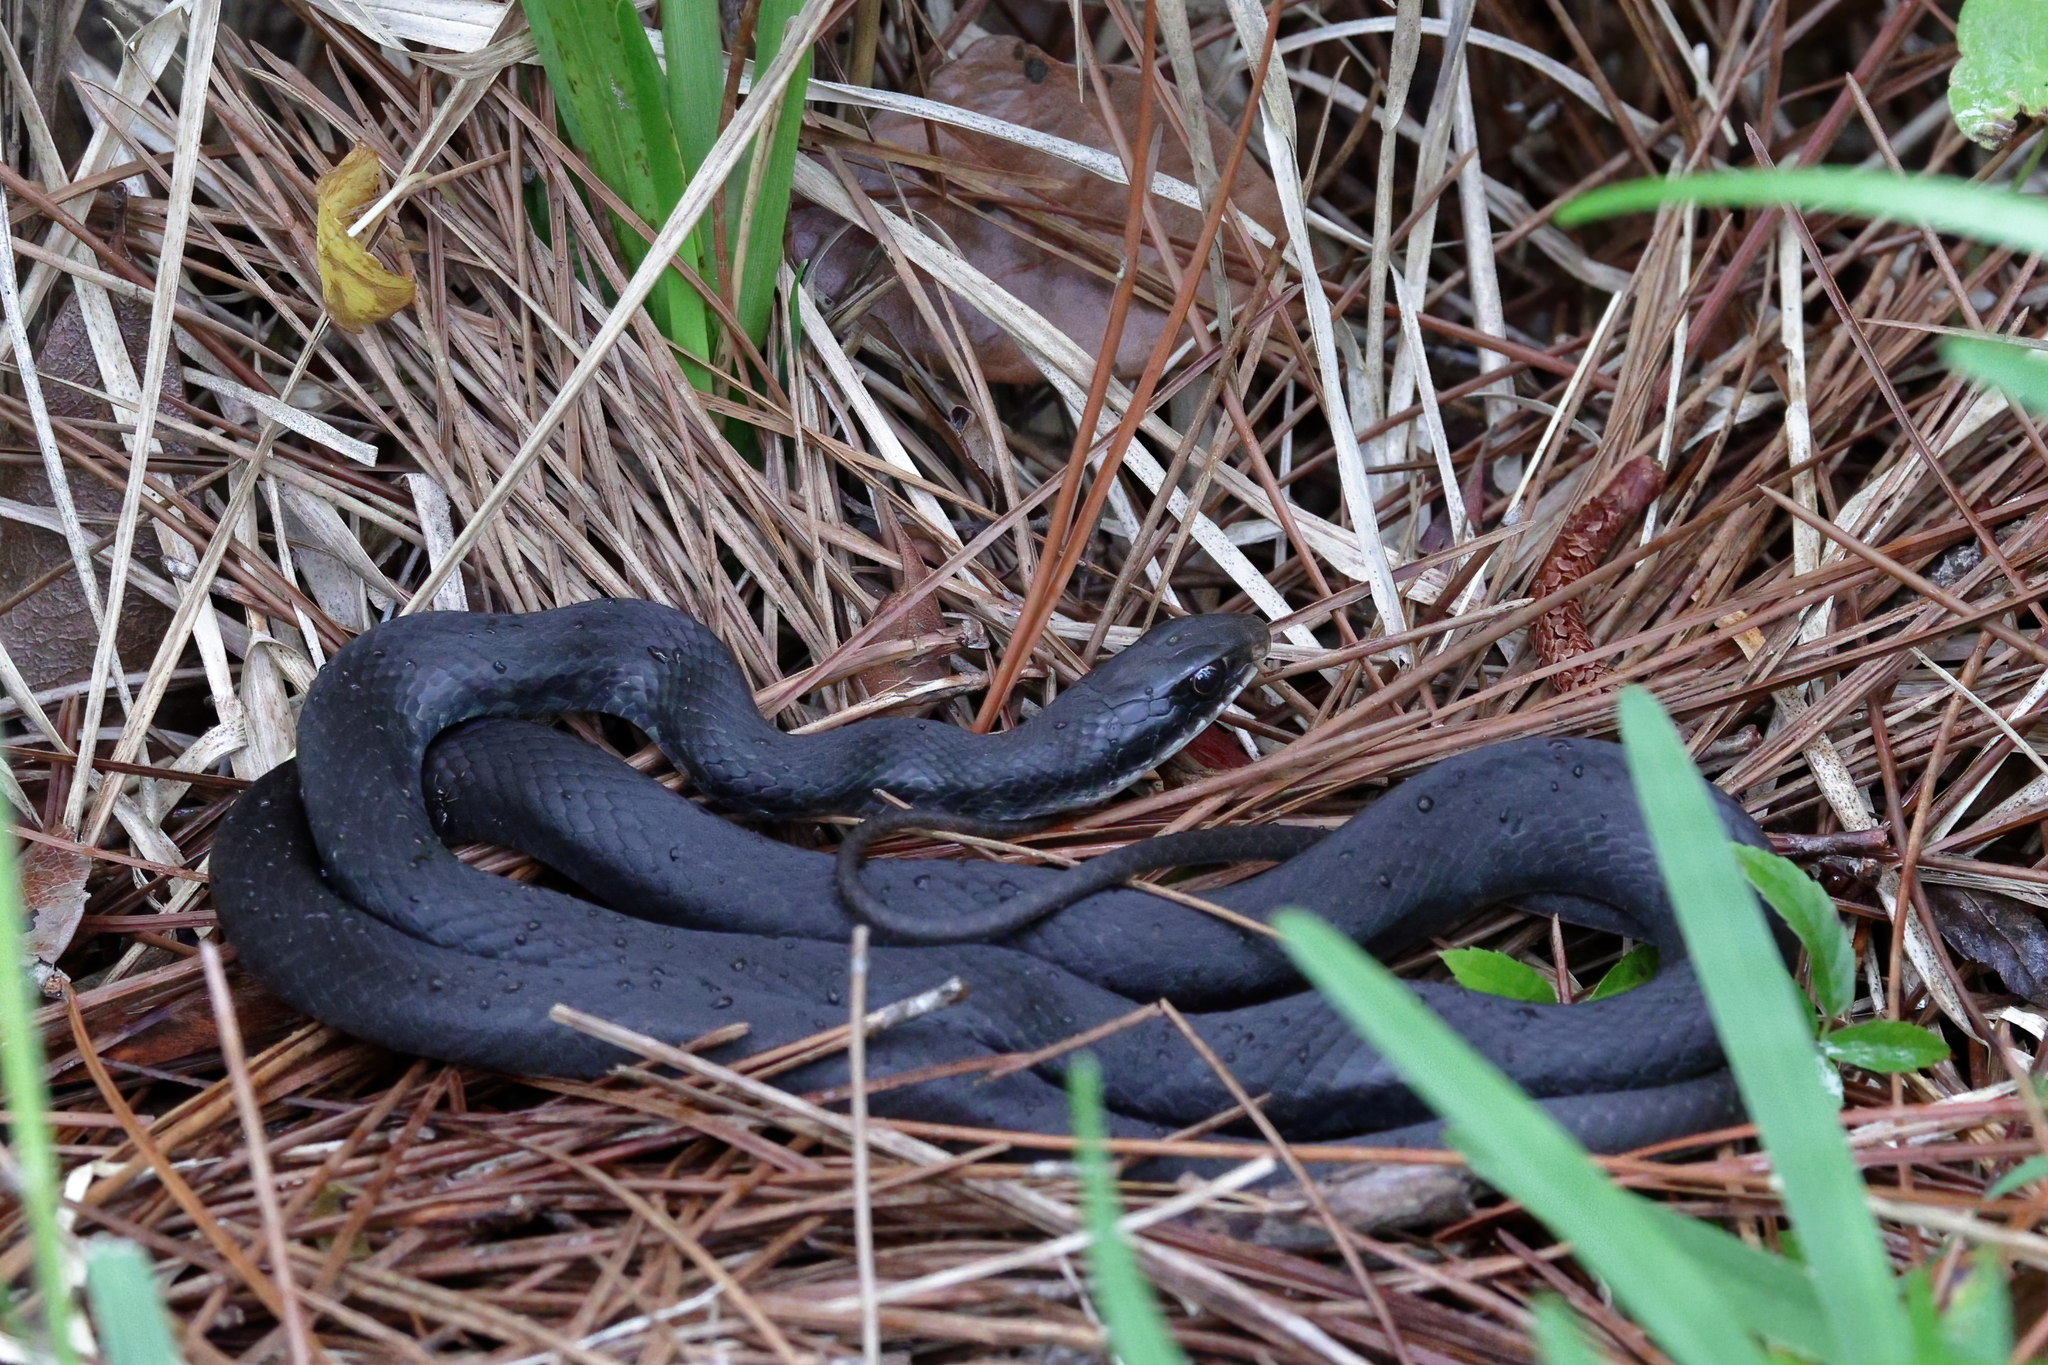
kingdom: Animalia
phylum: Chordata
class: Squamata
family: Colubridae
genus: Coluber
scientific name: Coluber constrictor
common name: Eastern racer
